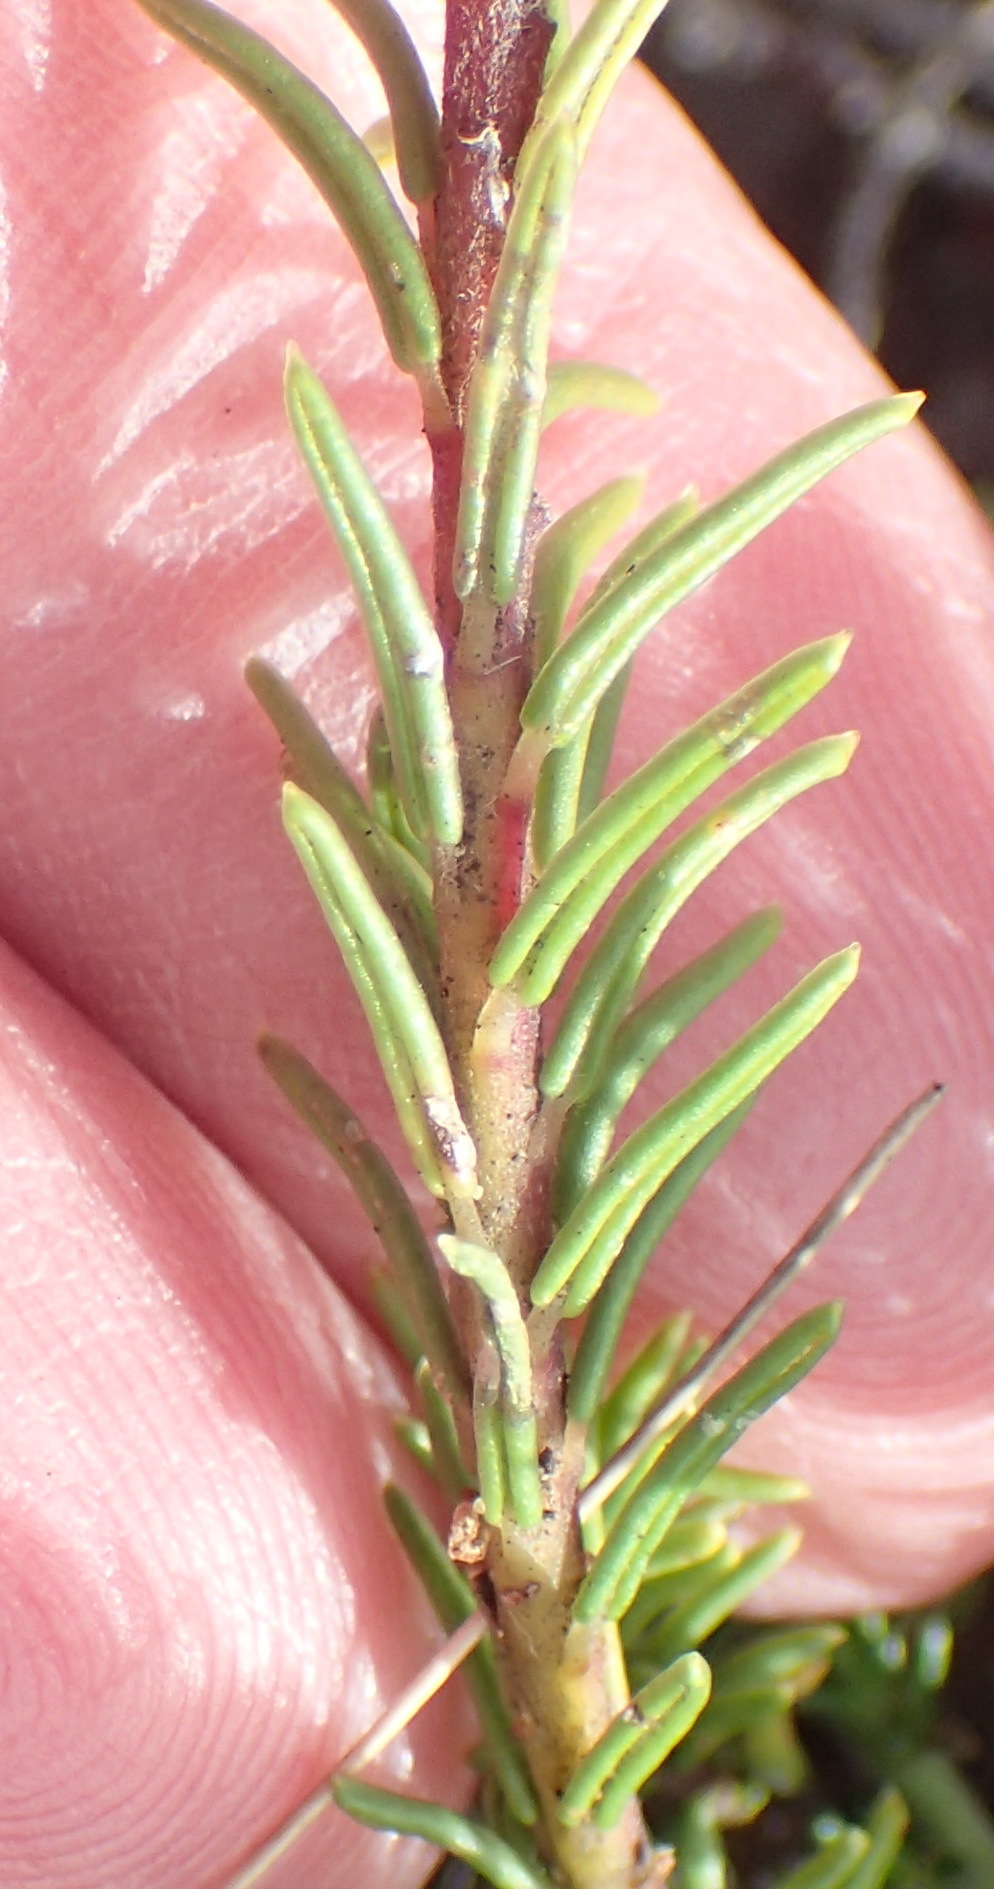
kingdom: Plantae
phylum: Tracheophyta
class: Magnoliopsida
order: Rosales
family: Rhamnaceae
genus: Phylica
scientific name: Phylica ericoides
